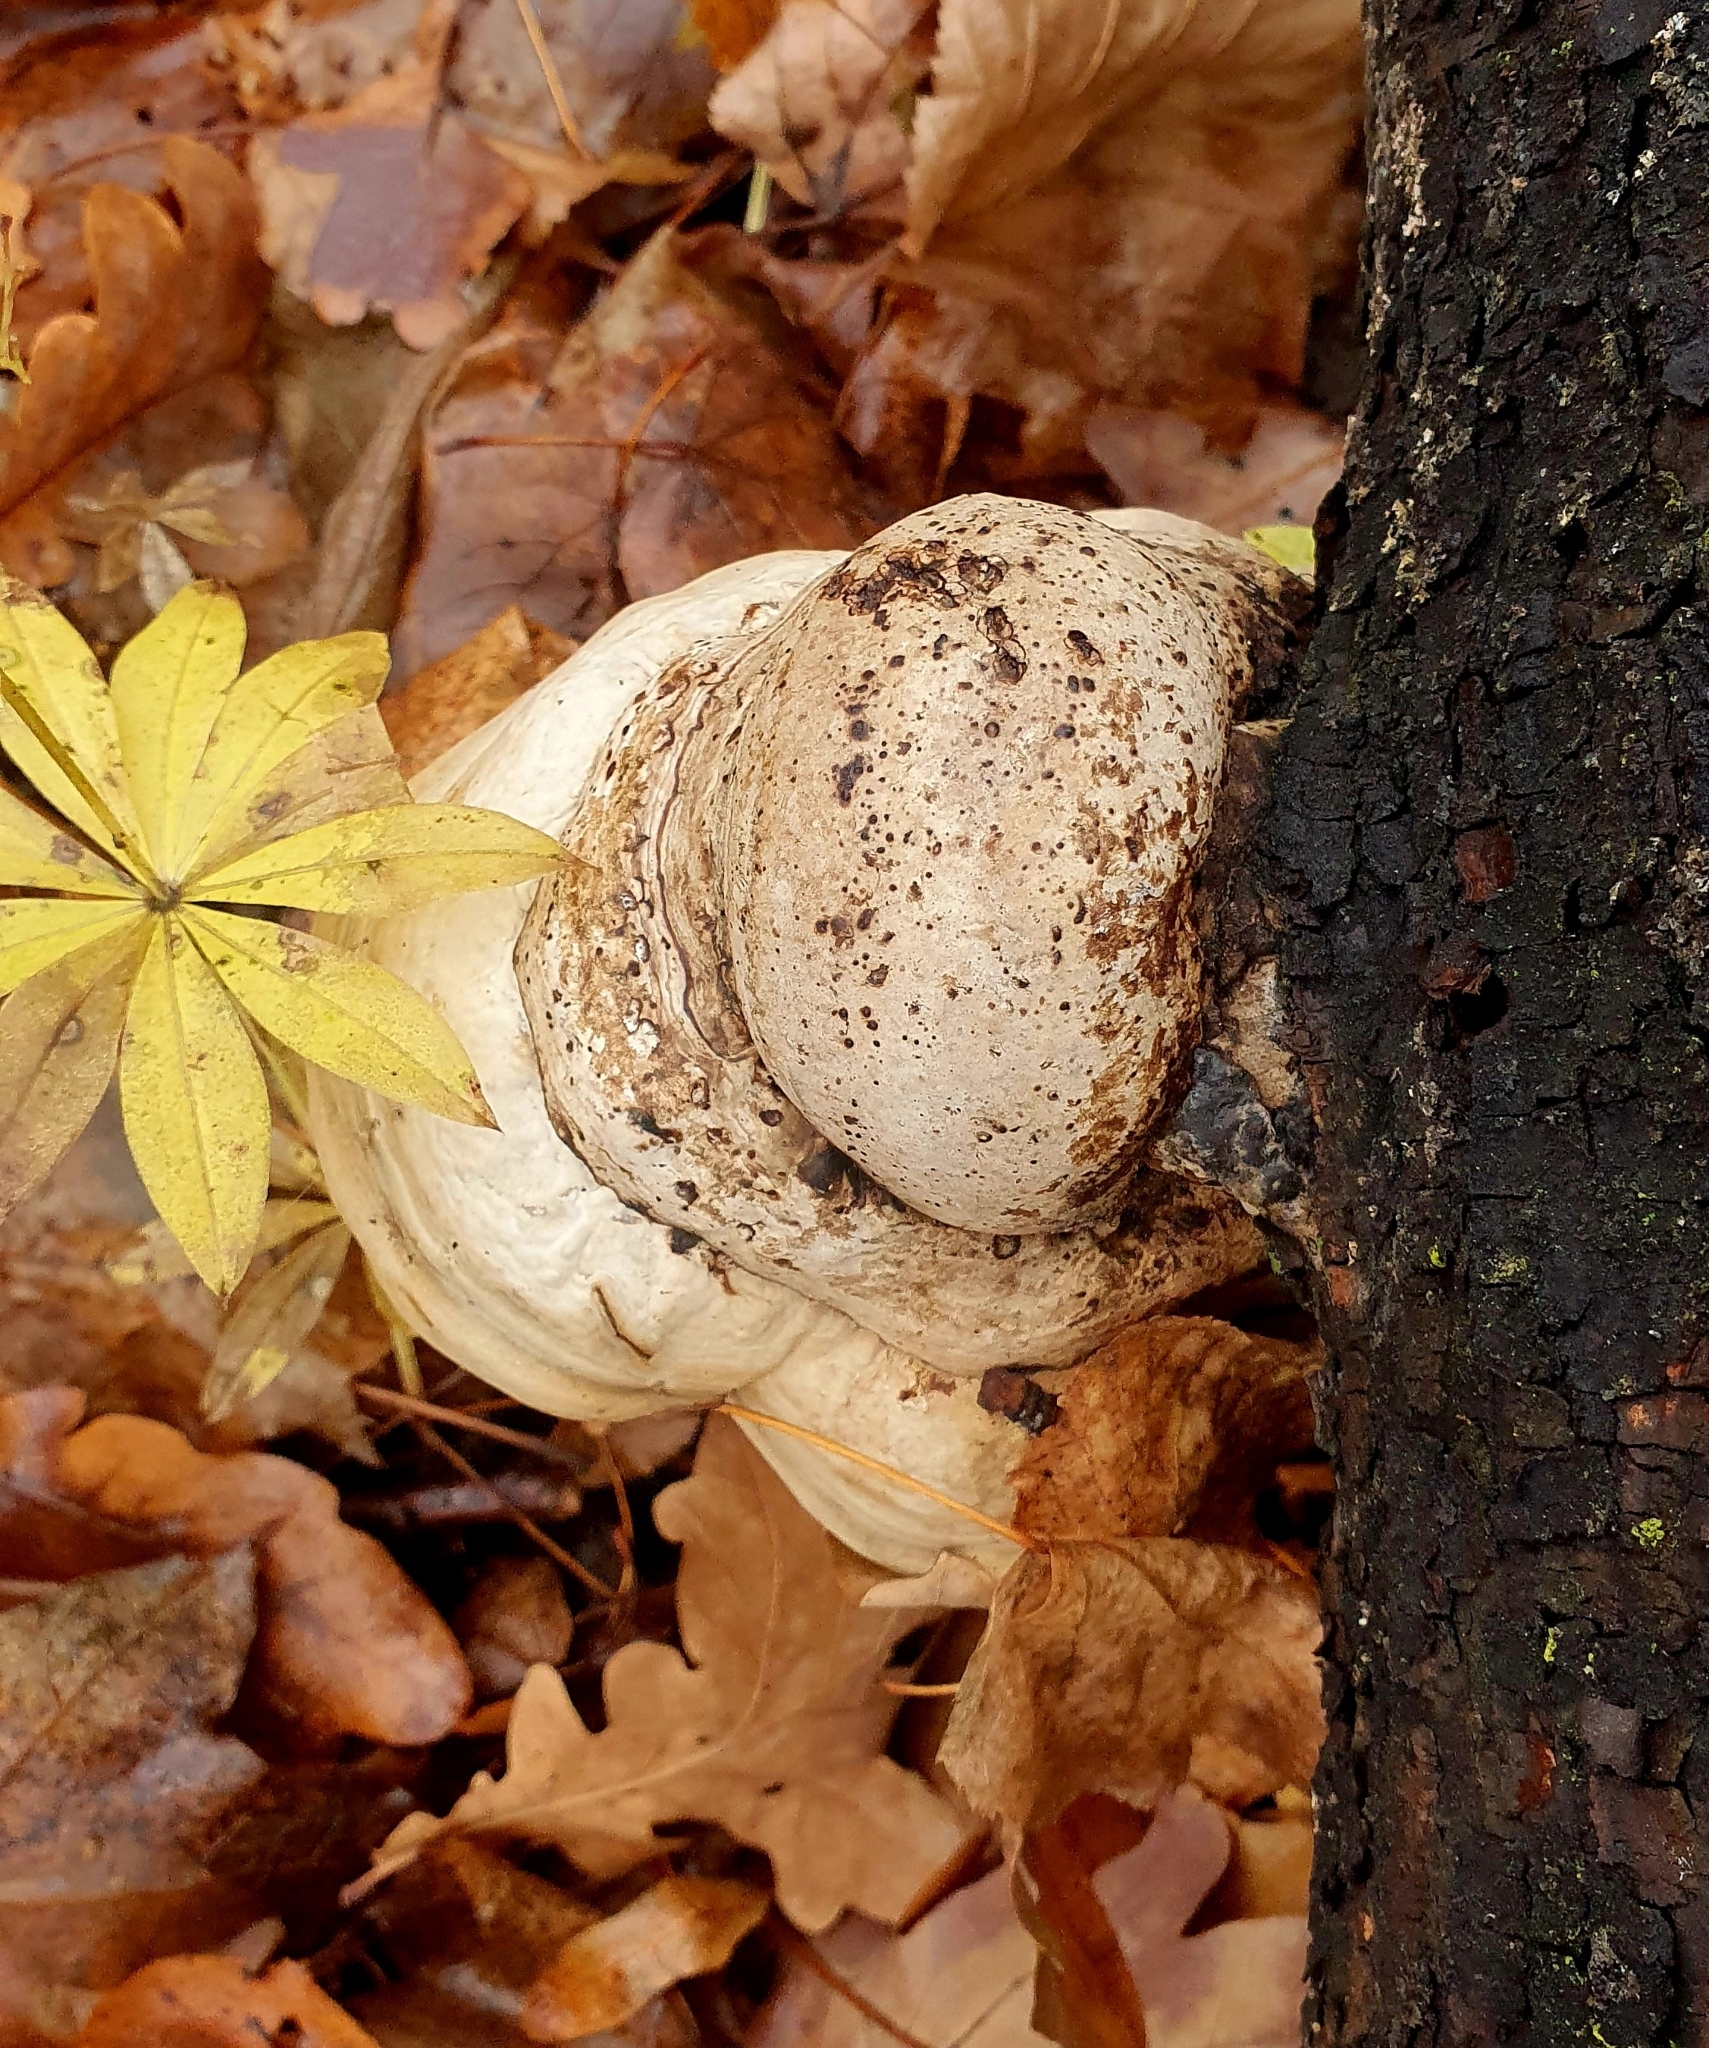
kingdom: Fungi
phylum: Basidiomycota
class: Agaricomycetes
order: Polyporales
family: Polyporaceae
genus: Fomes
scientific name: Fomes fomentarius
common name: Hoof fungus
